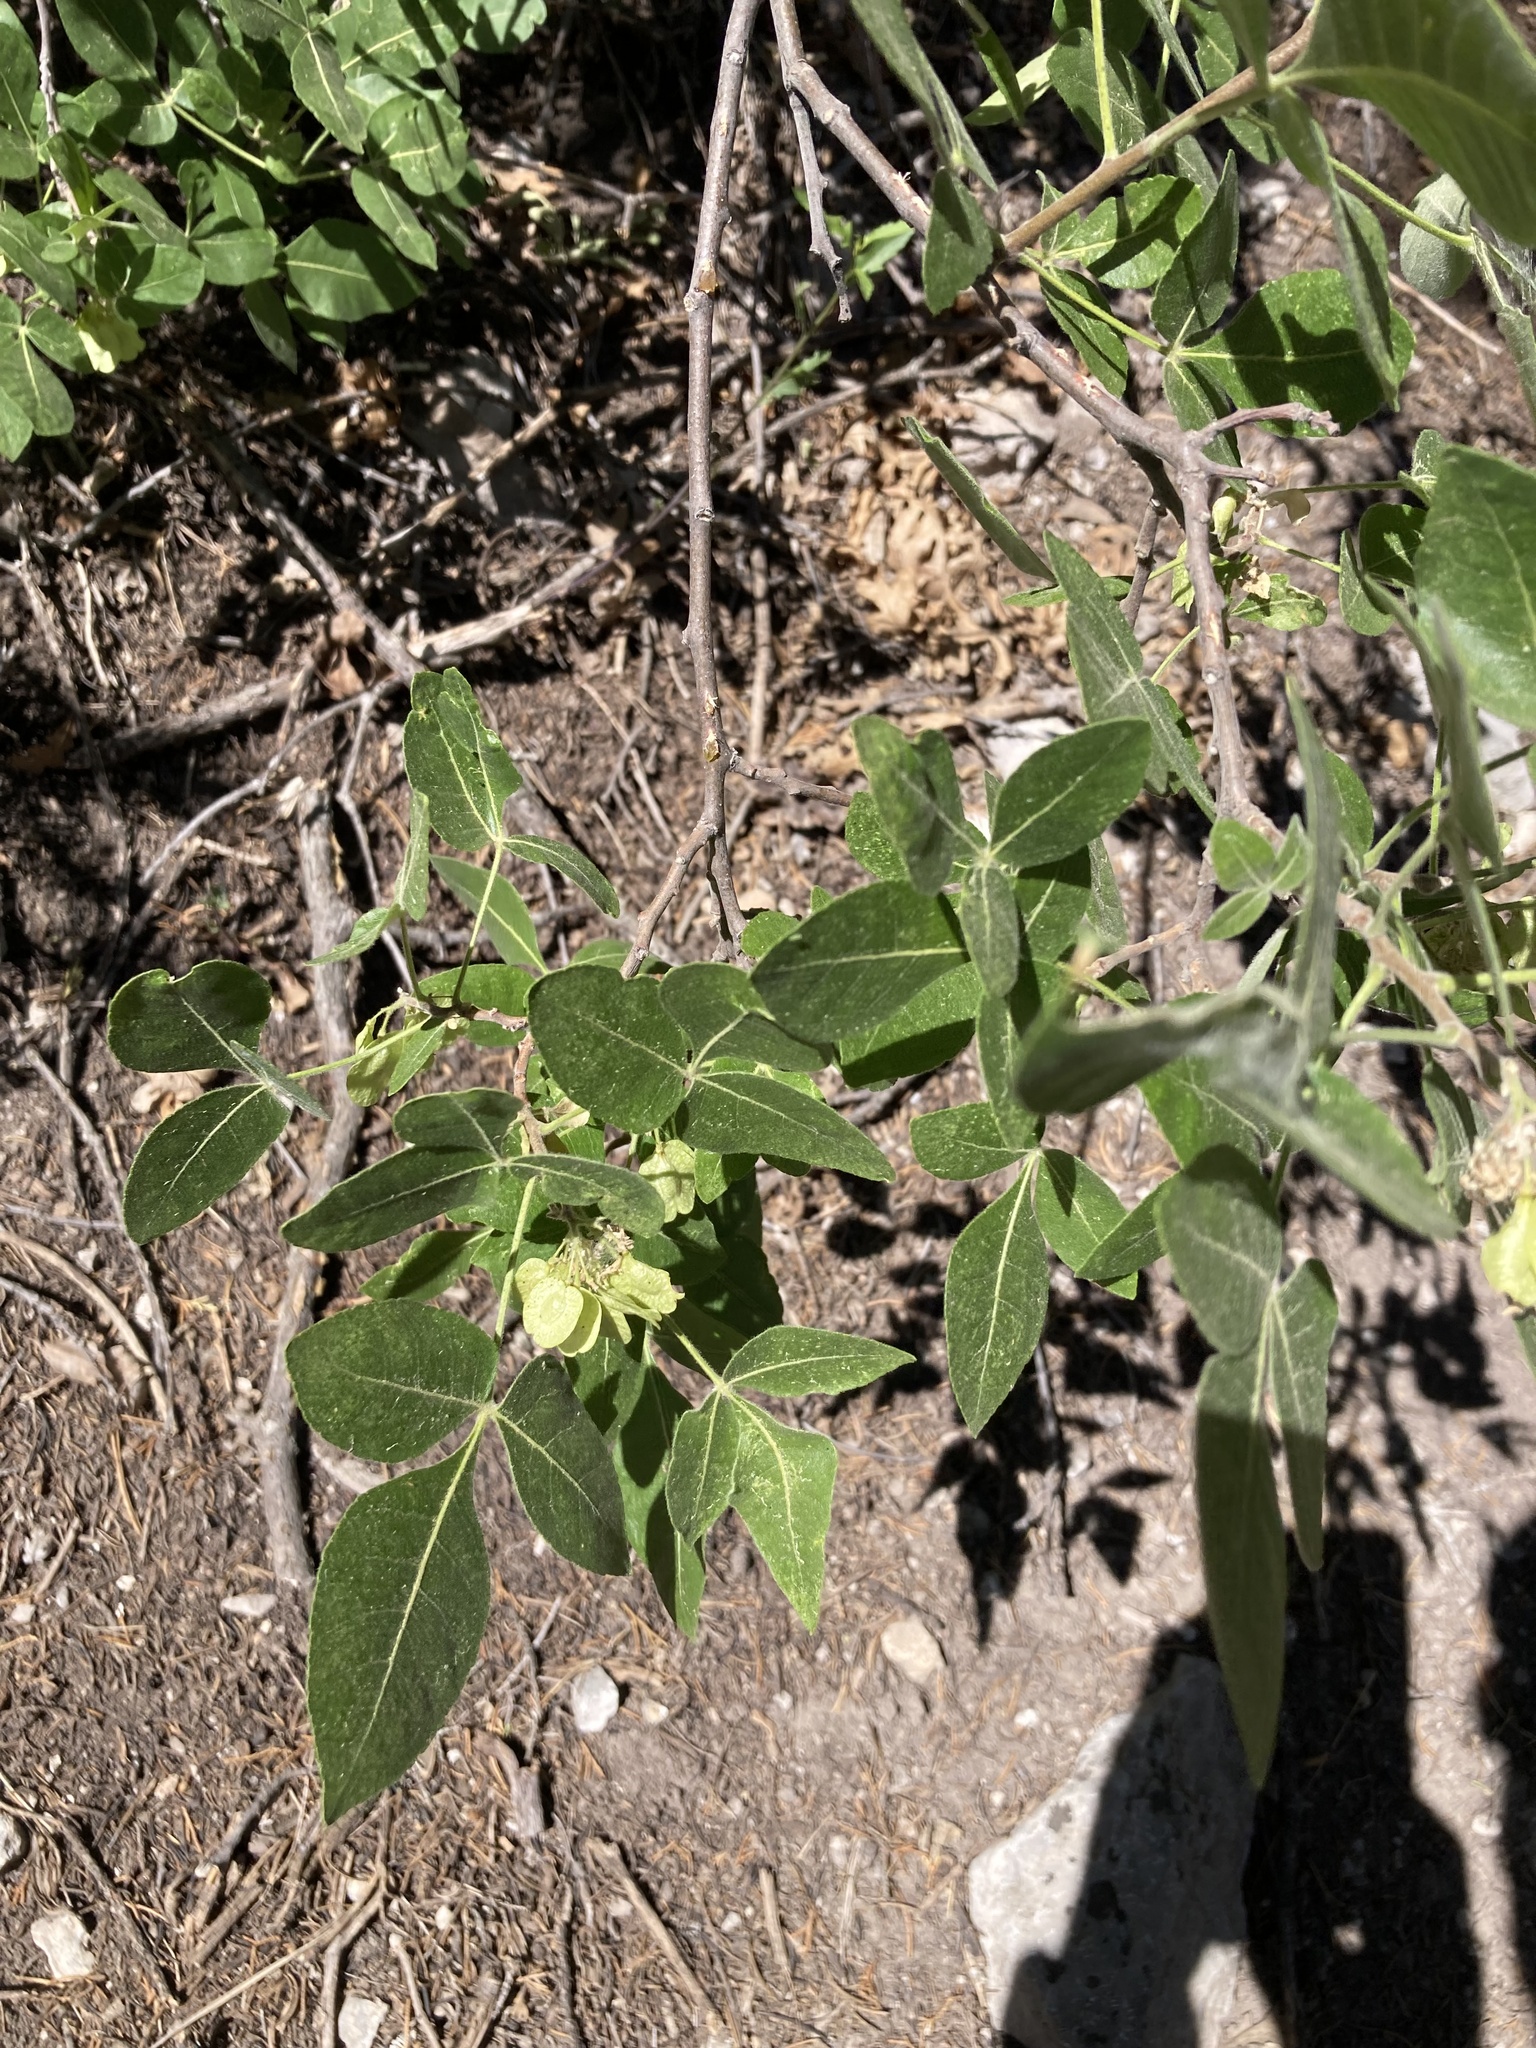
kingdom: Plantae
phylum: Tracheophyta
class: Magnoliopsida
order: Sapindales
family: Rutaceae
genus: Ptelea
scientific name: Ptelea trifoliata
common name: Common hop-tree
